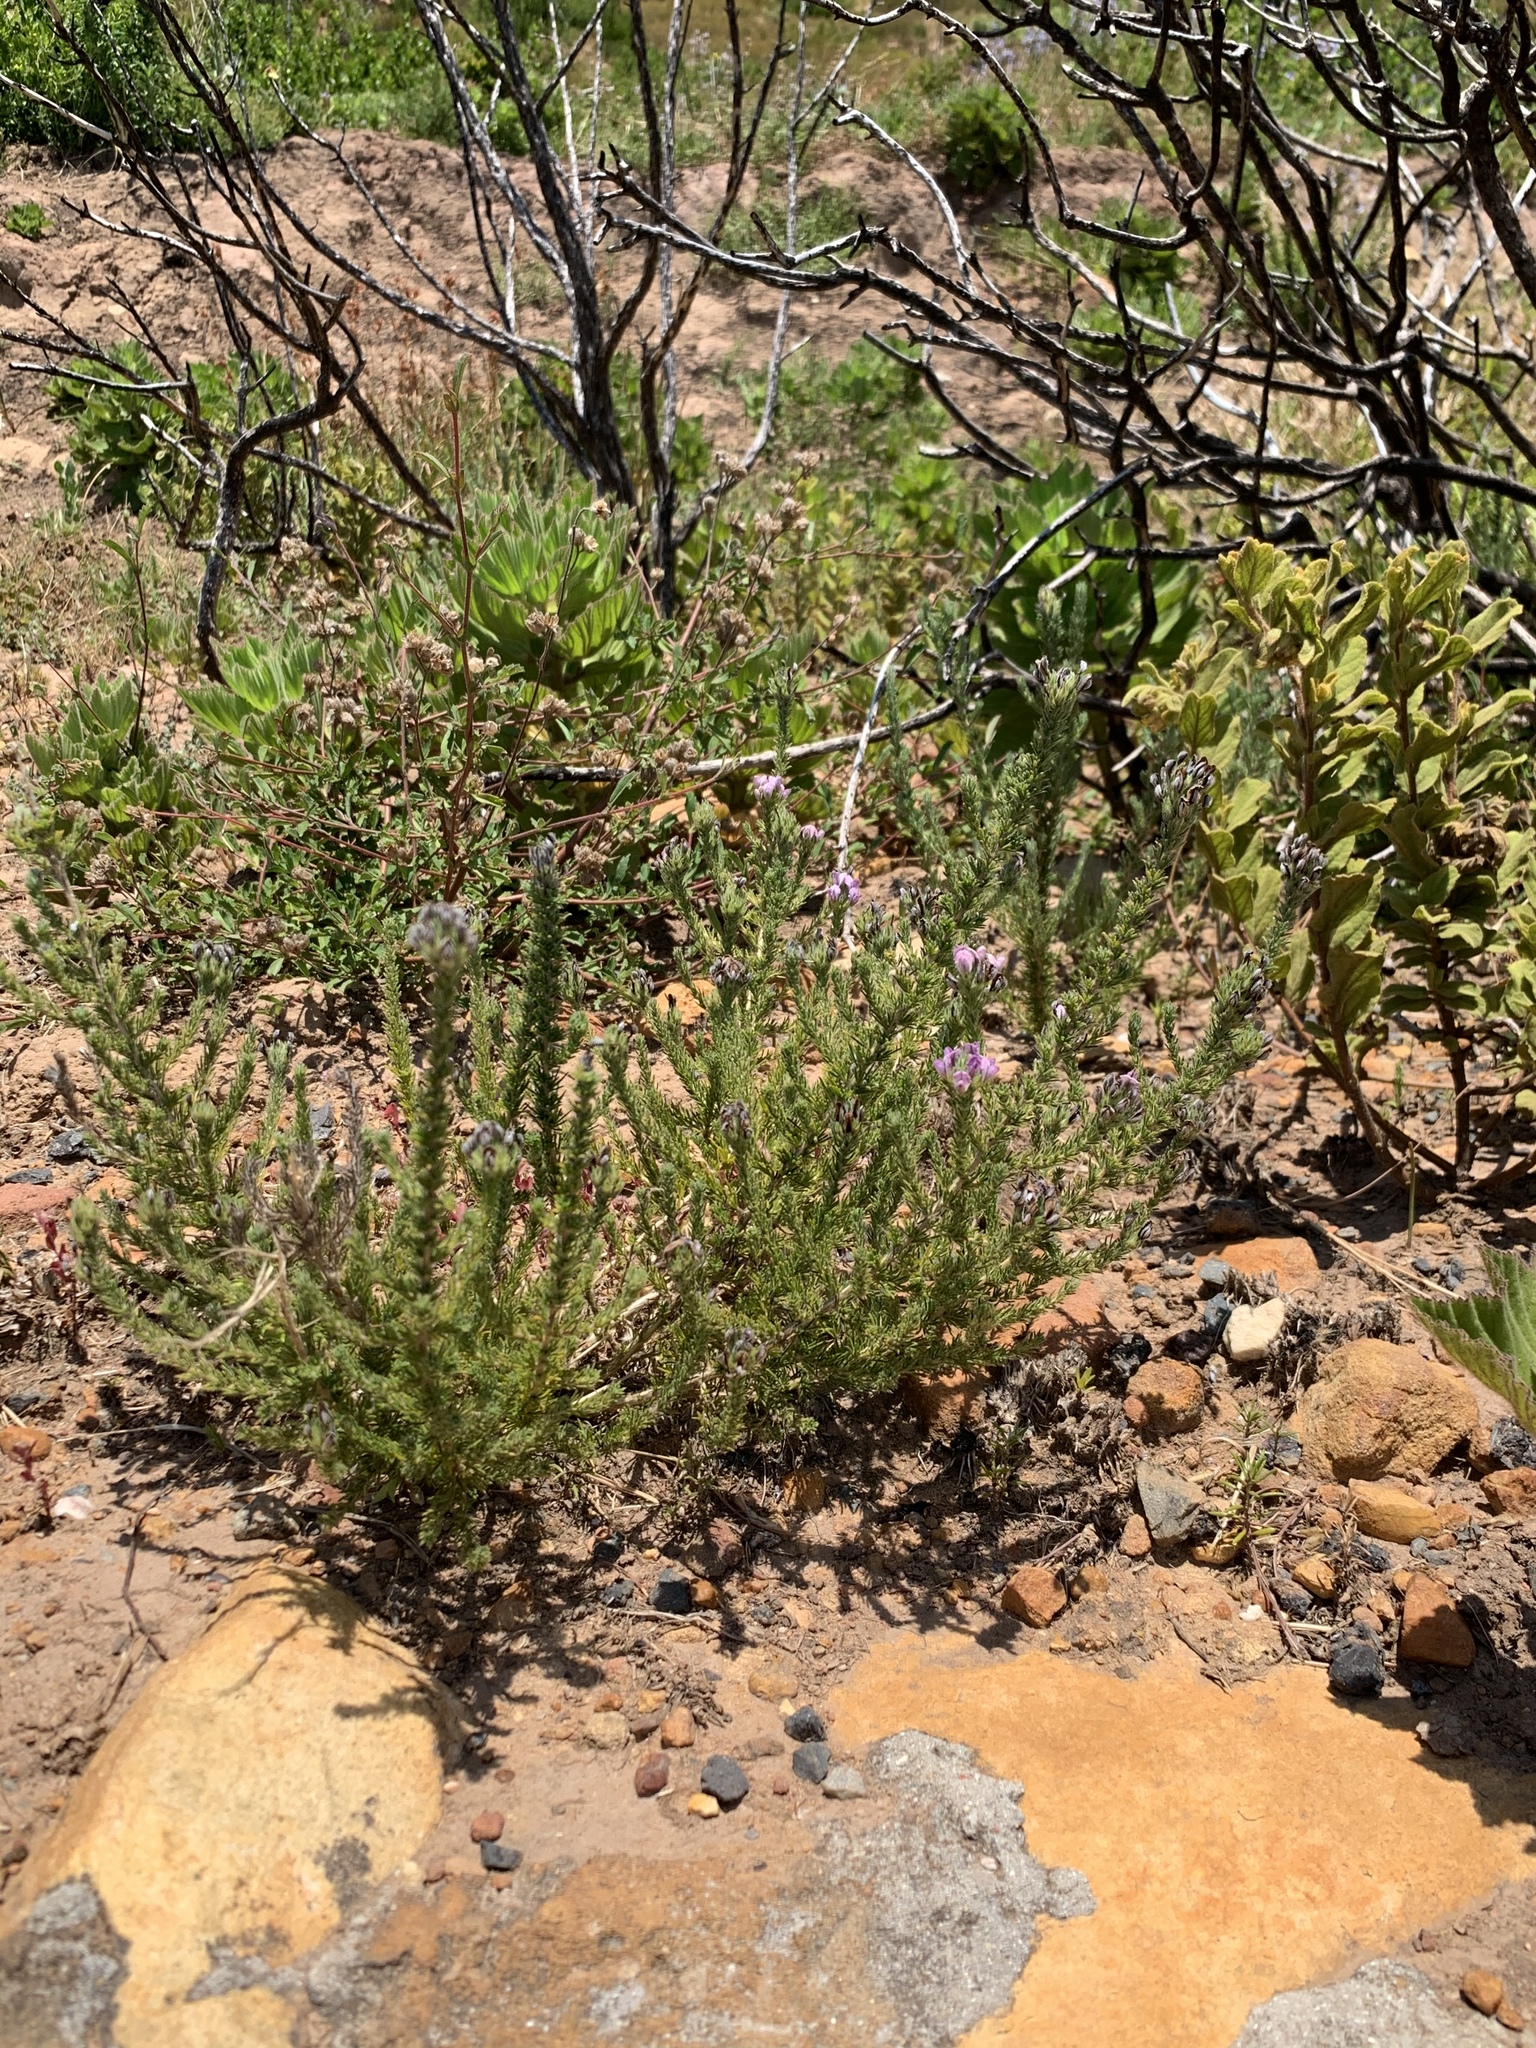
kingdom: Plantae
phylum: Tracheophyta
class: Magnoliopsida
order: Fabales
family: Fabaceae
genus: Aspalathus
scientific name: Aspalathus cephalotes
